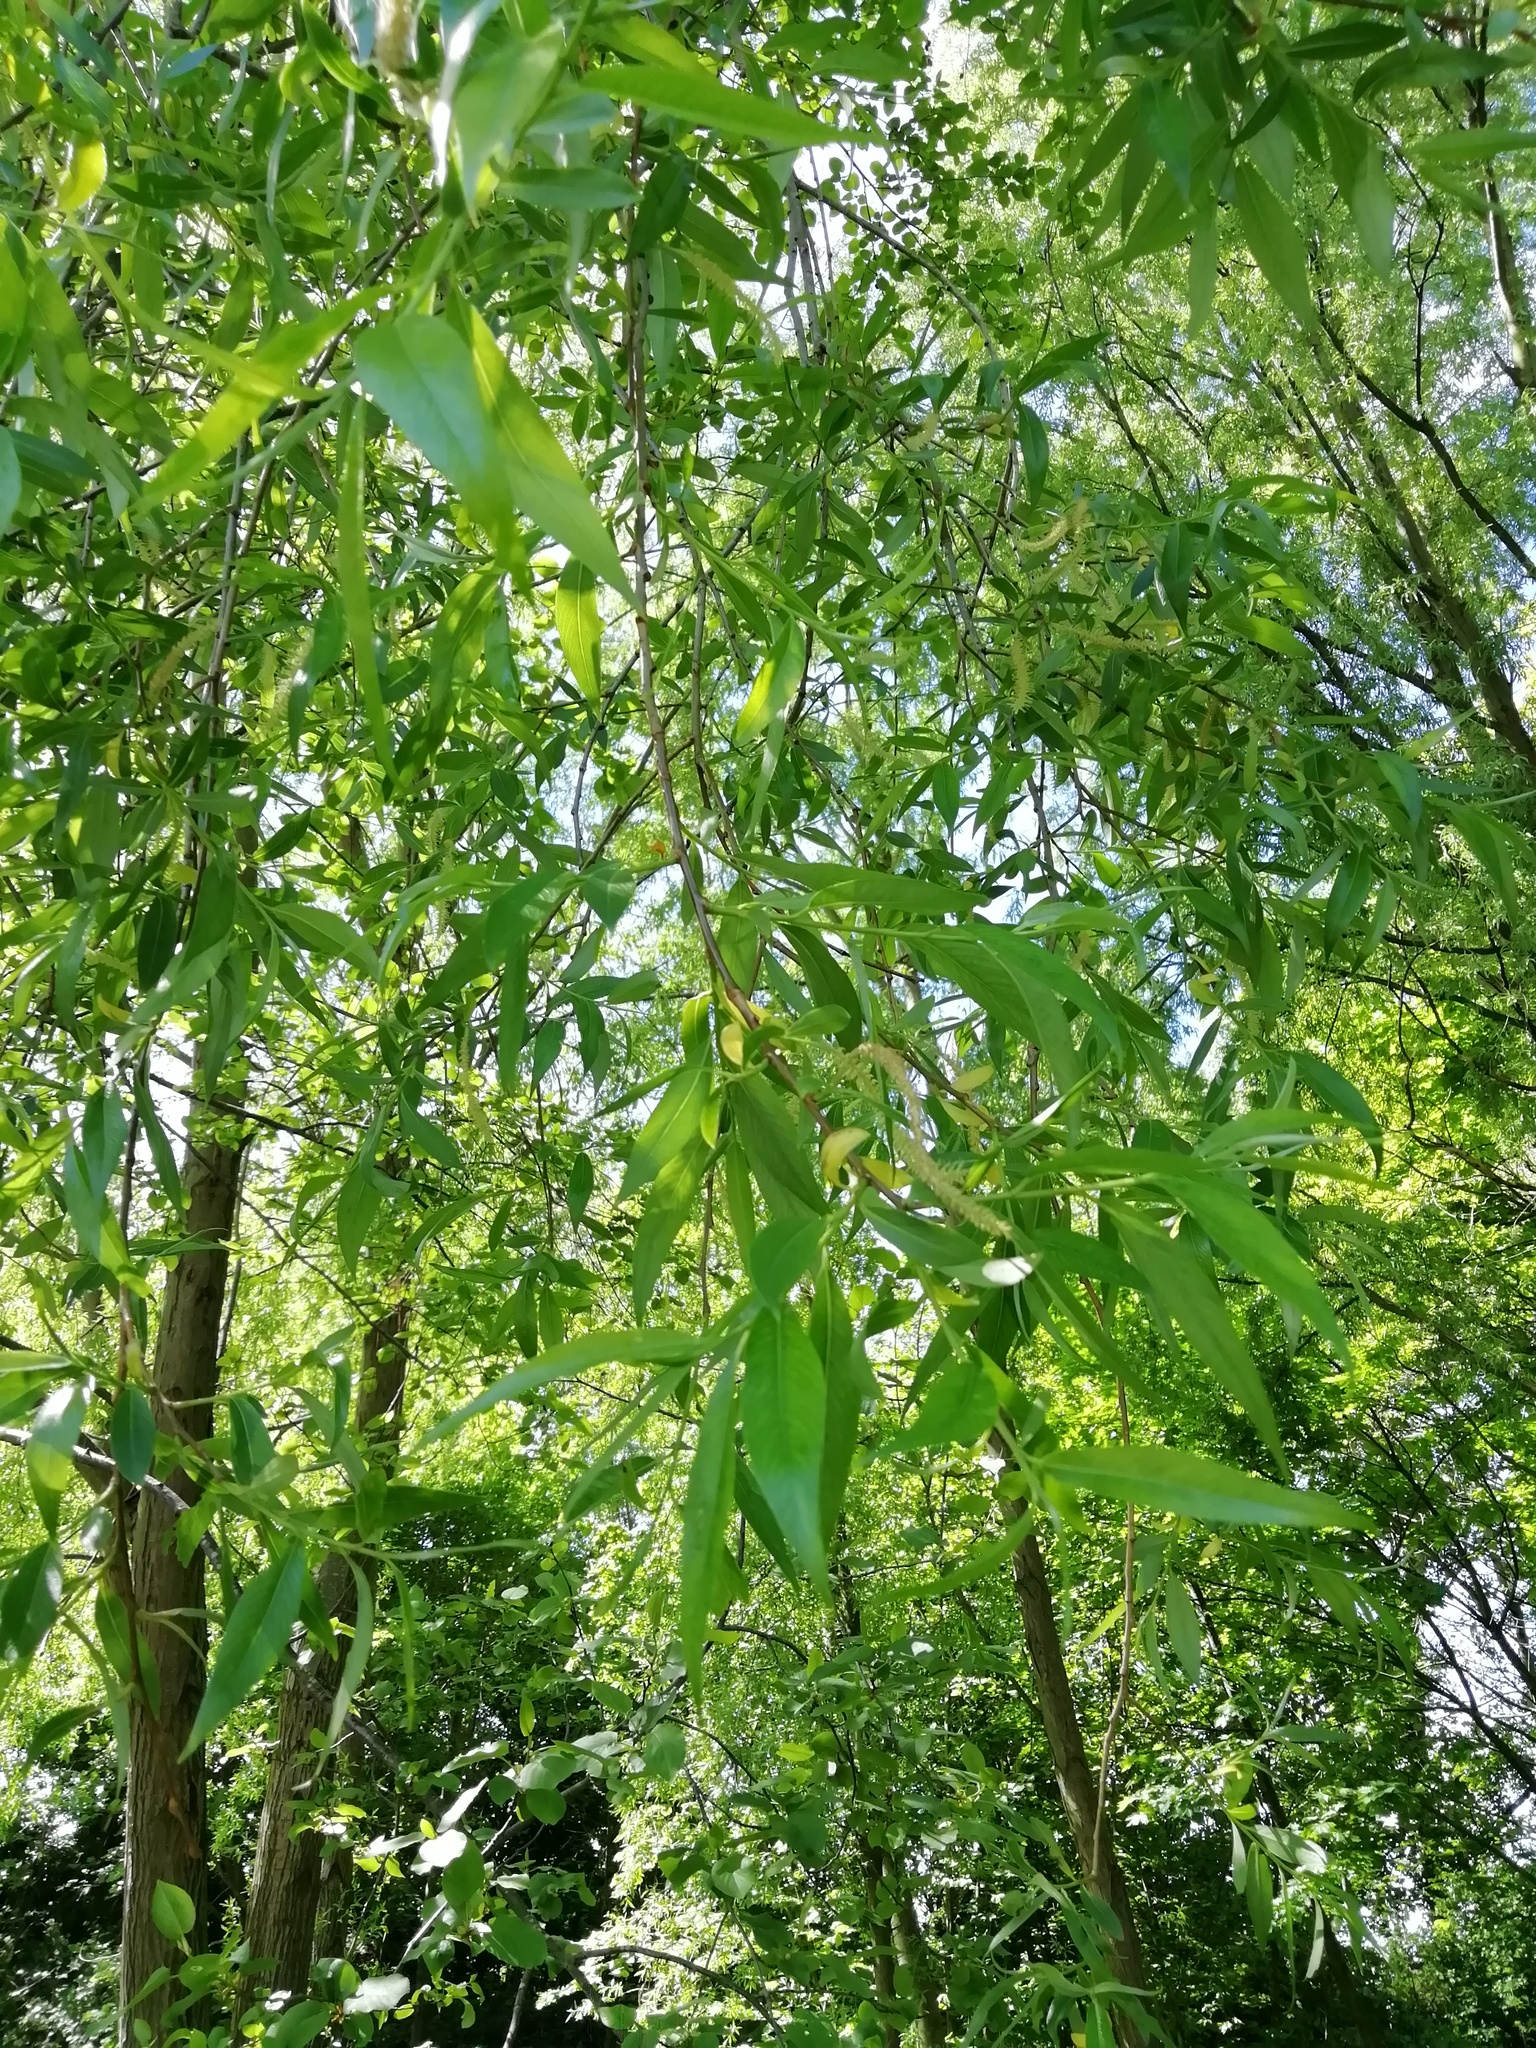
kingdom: Plantae
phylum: Tracheophyta
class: Magnoliopsida
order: Malpighiales
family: Salicaceae
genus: Salix
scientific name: Salix fragilis
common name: Crack willow
